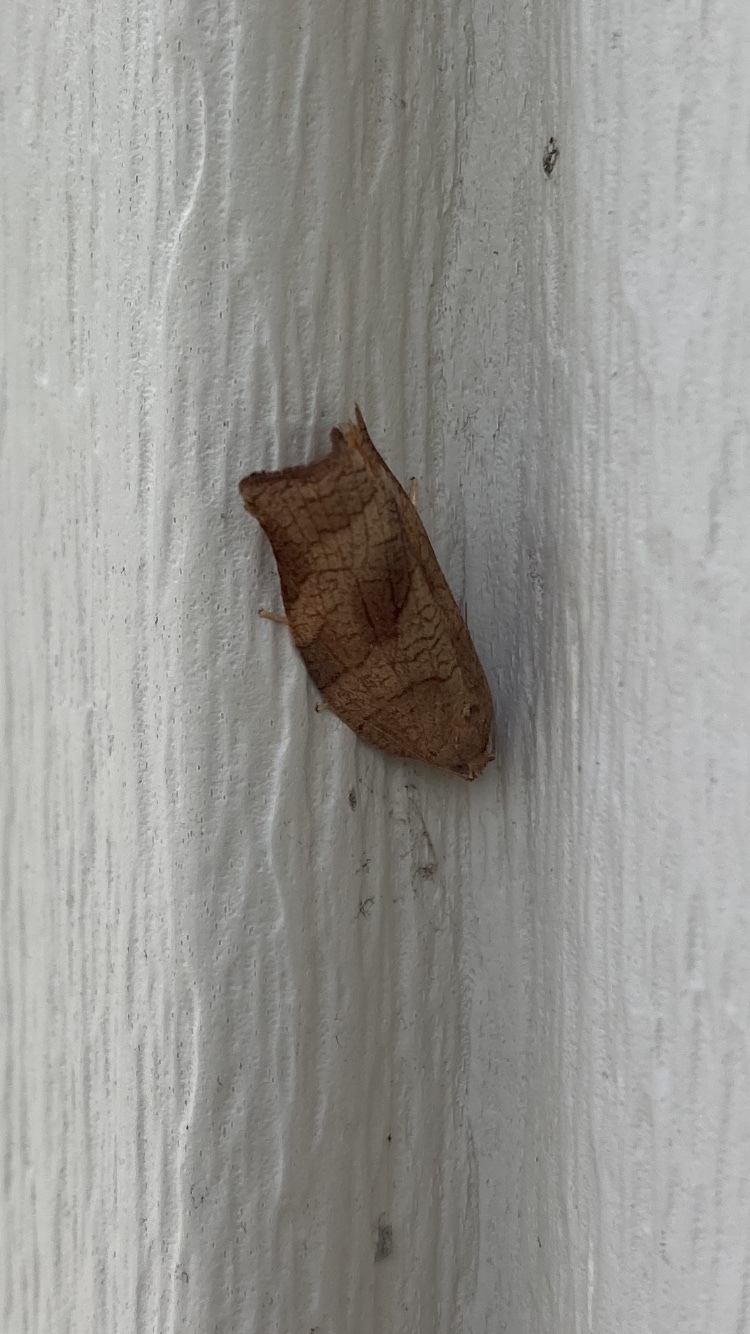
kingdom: Animalia
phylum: Arthropoda
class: Insecta
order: Lepidoptera
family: Tortricidae
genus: Choristoneura
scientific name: Choristoneura rosaceana
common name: Oblique-banded leafroller moth
